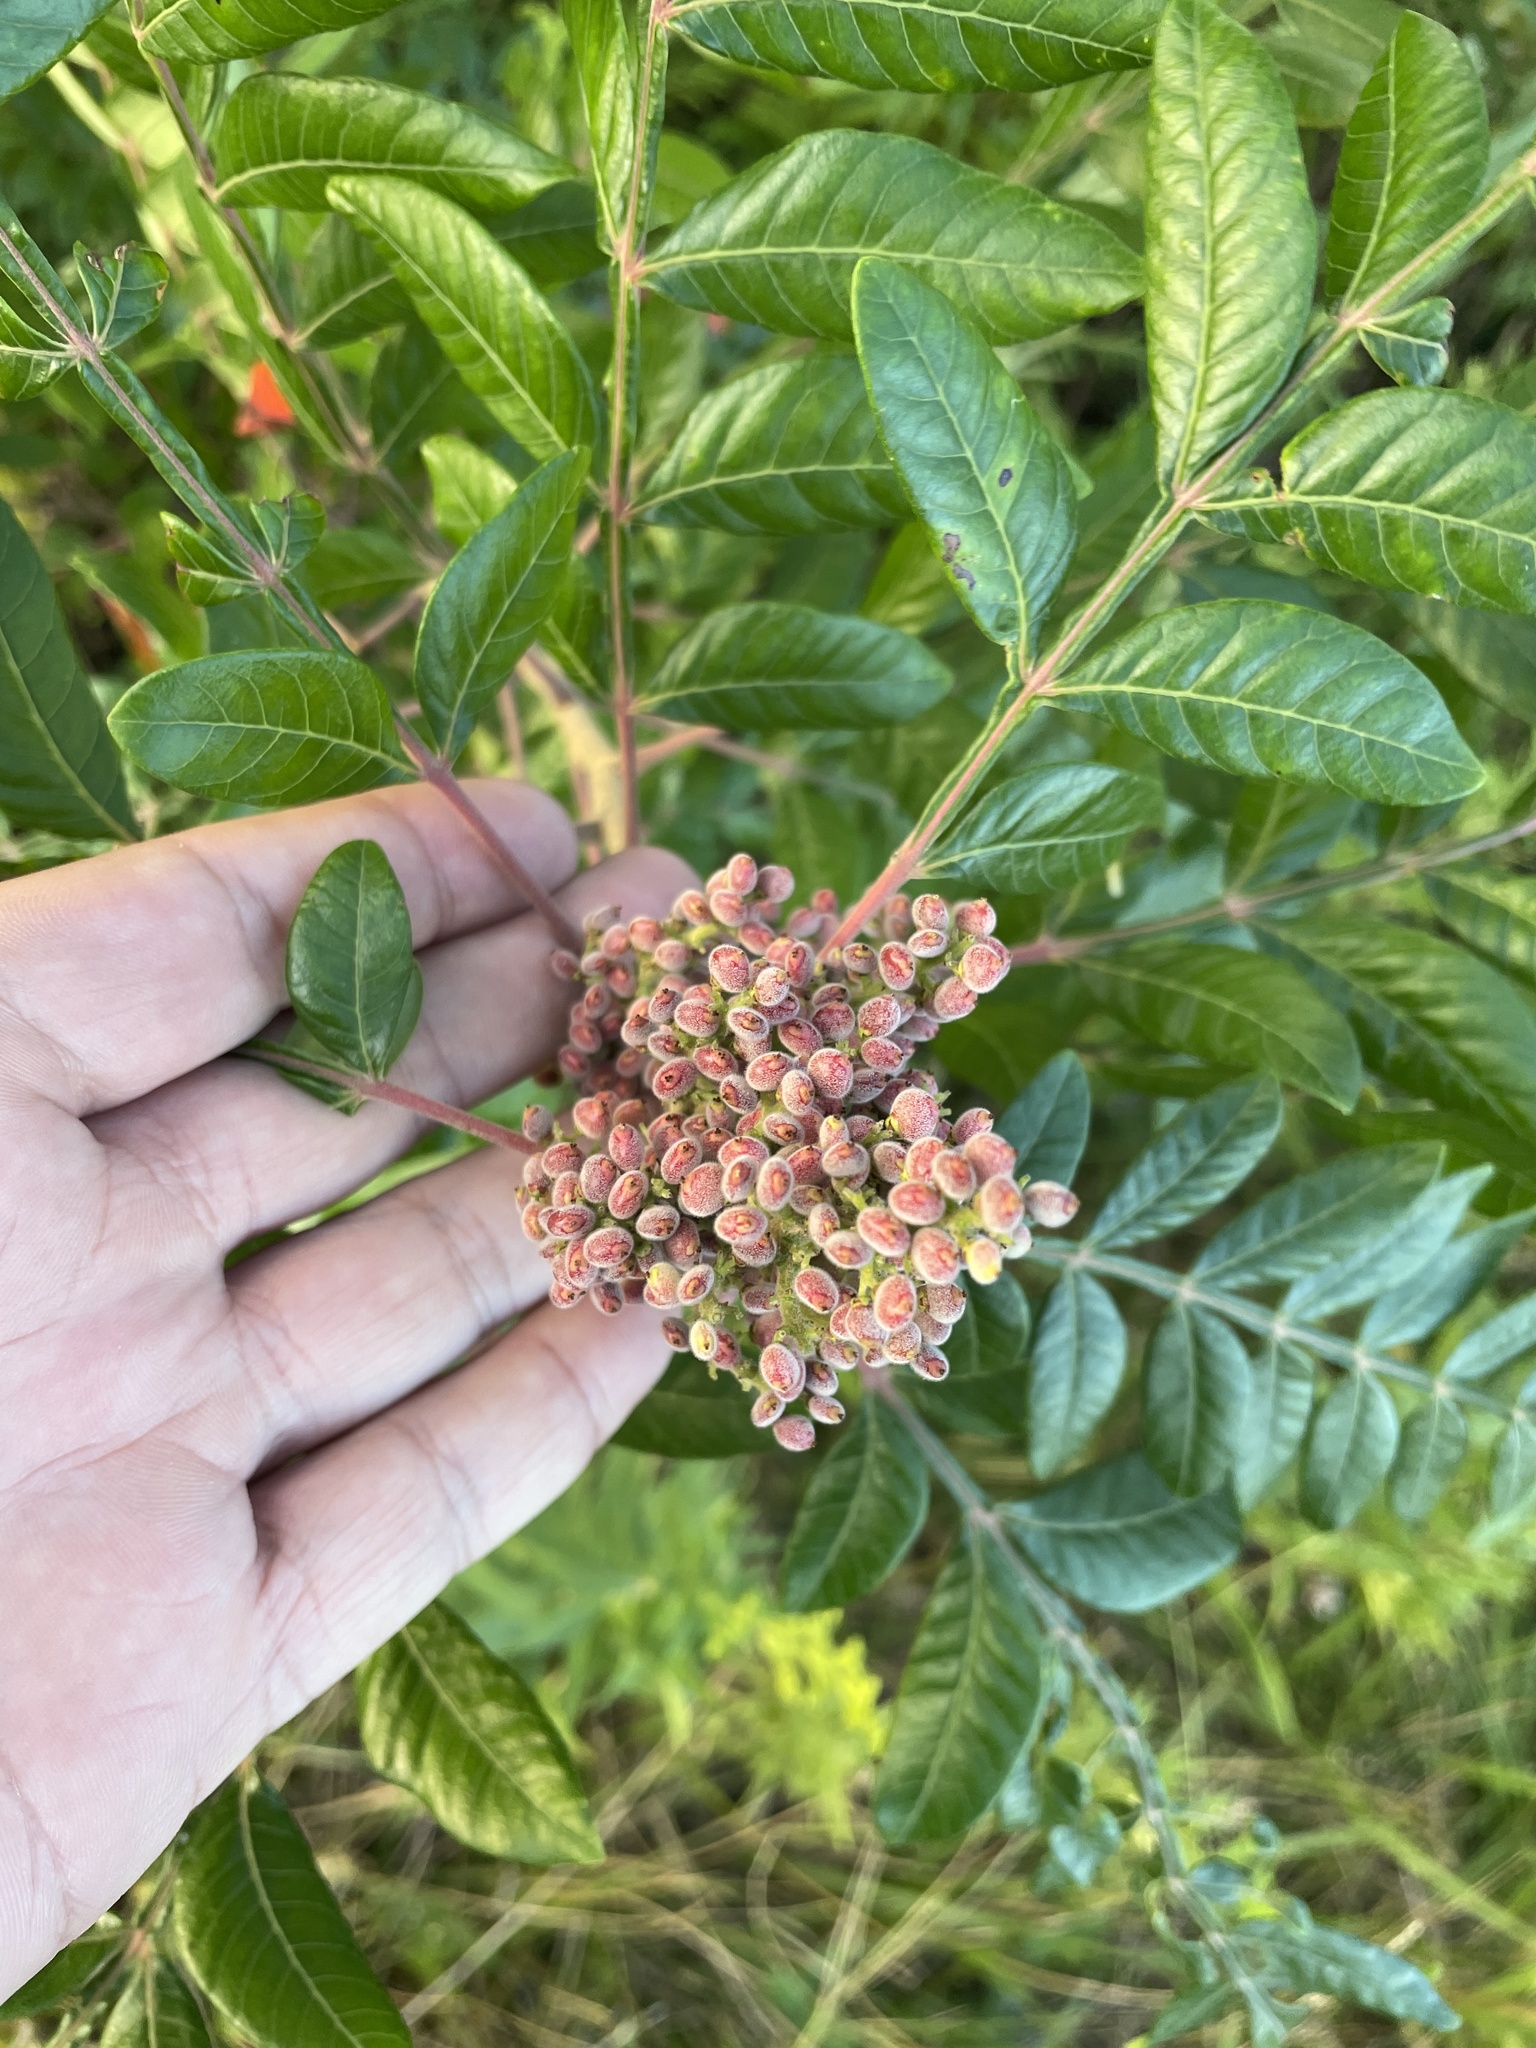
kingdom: Plantae
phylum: Tracheophyta
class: Magnoliopsida
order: Sapindales
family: Anacardiaceae
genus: Rhus
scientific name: Rhus copallina
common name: Shining sumac
